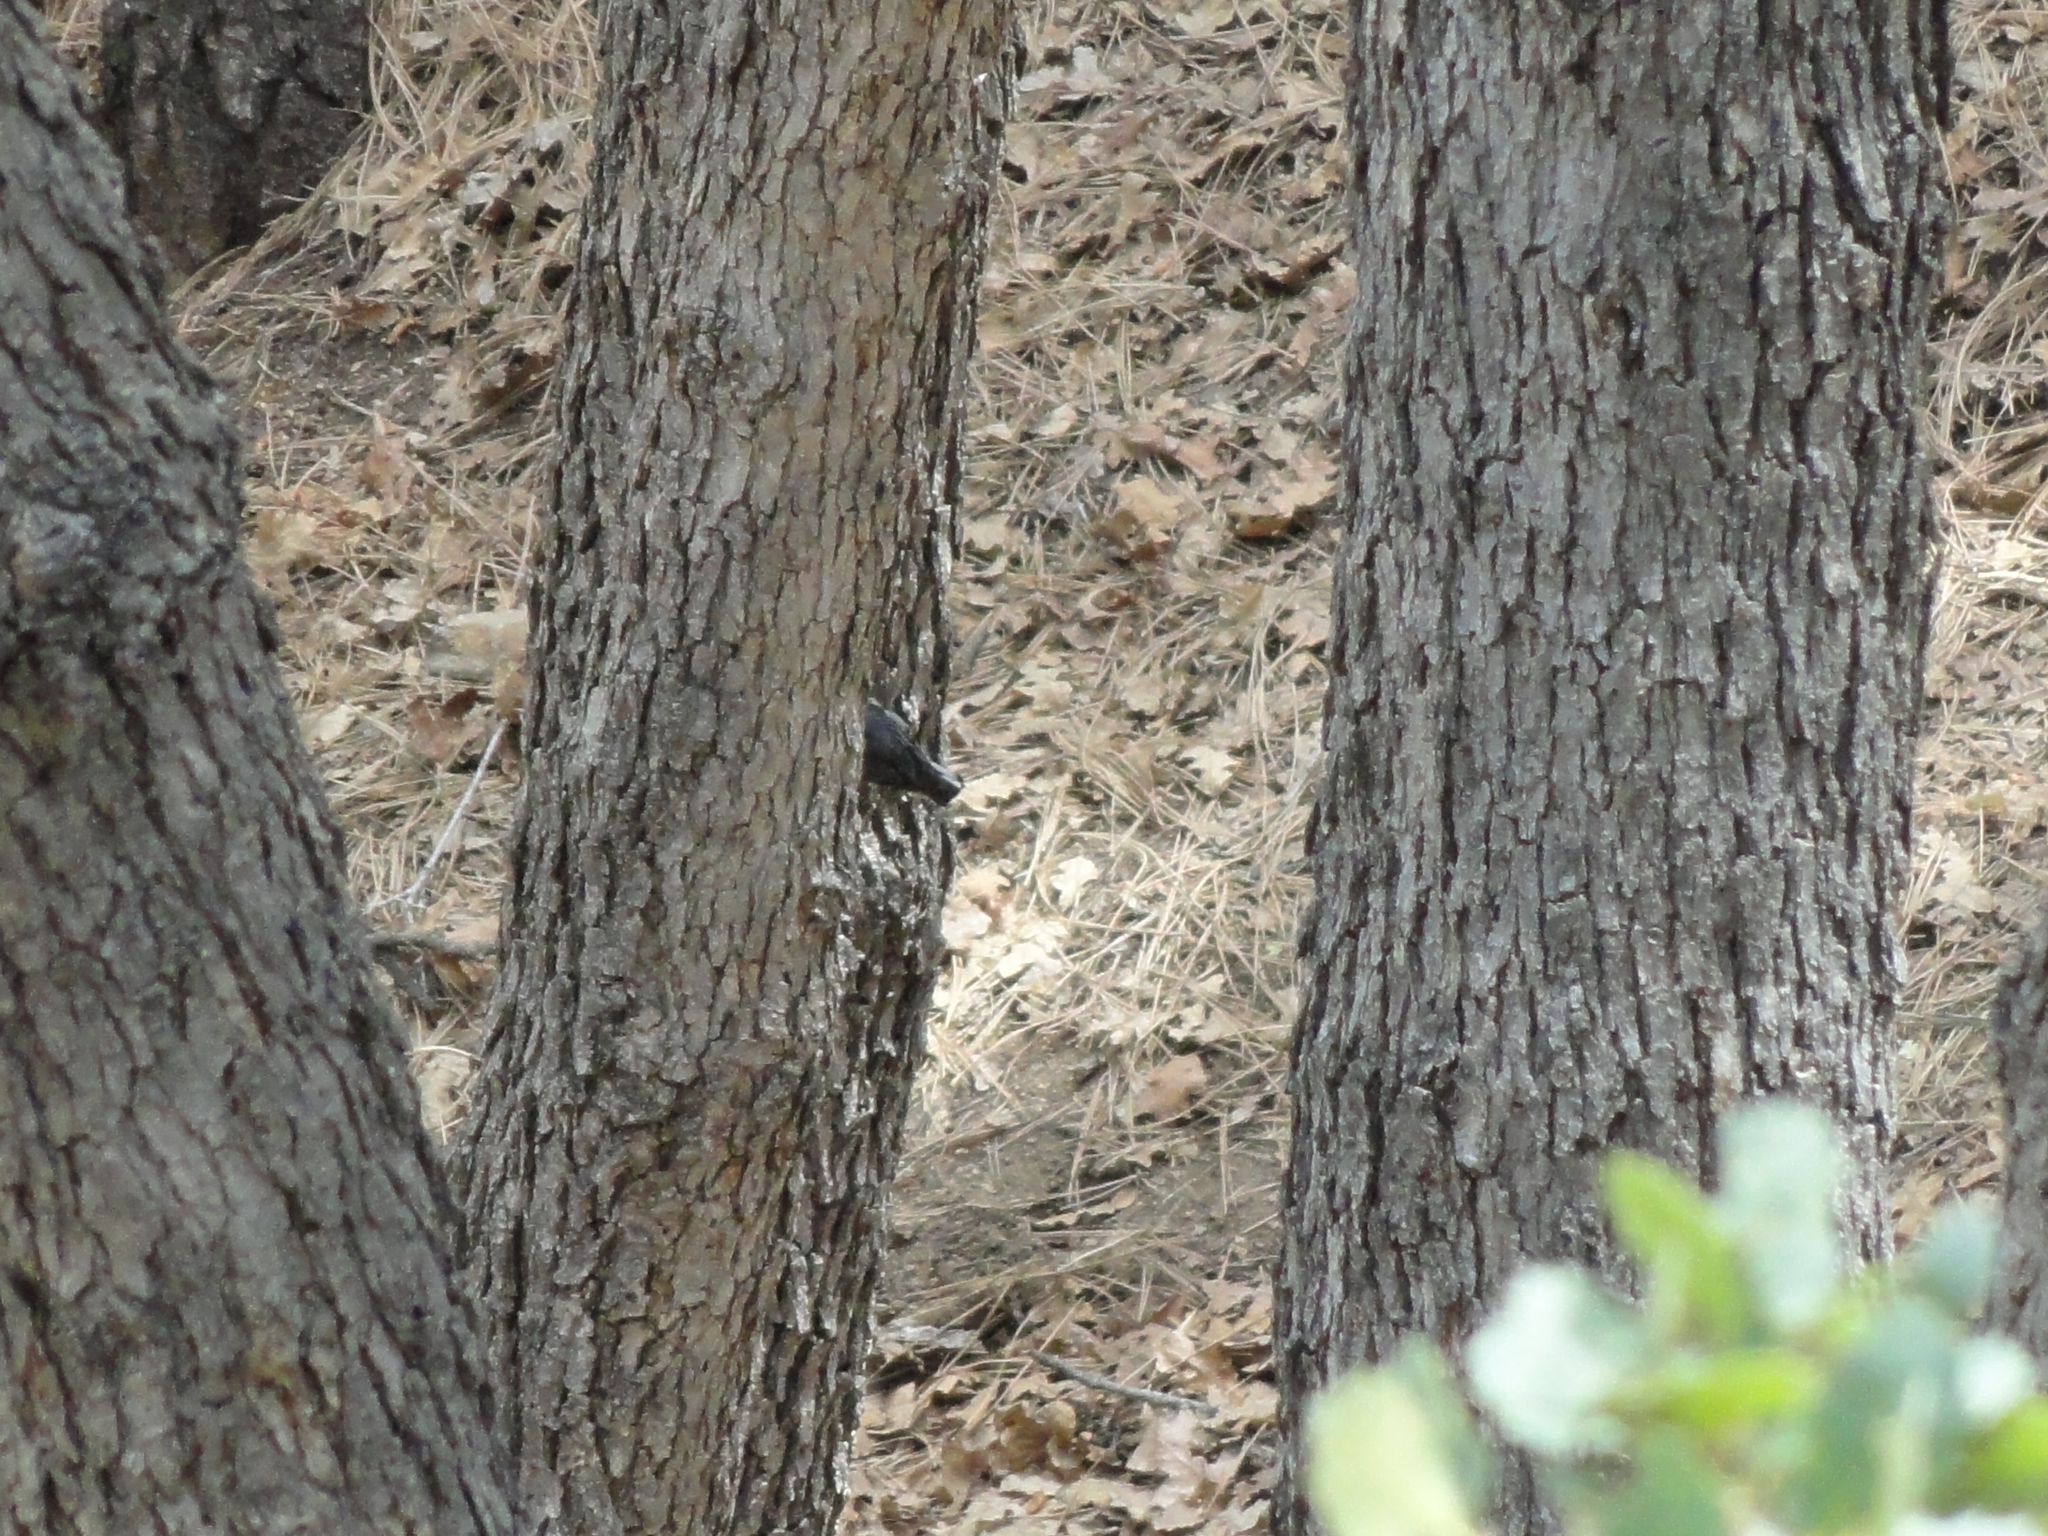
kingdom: Animalia
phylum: Chordata
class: Aves
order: Passeriformes
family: Sittidae
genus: Sitta
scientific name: Sitta carolinensis
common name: White-breasted nuthatch
